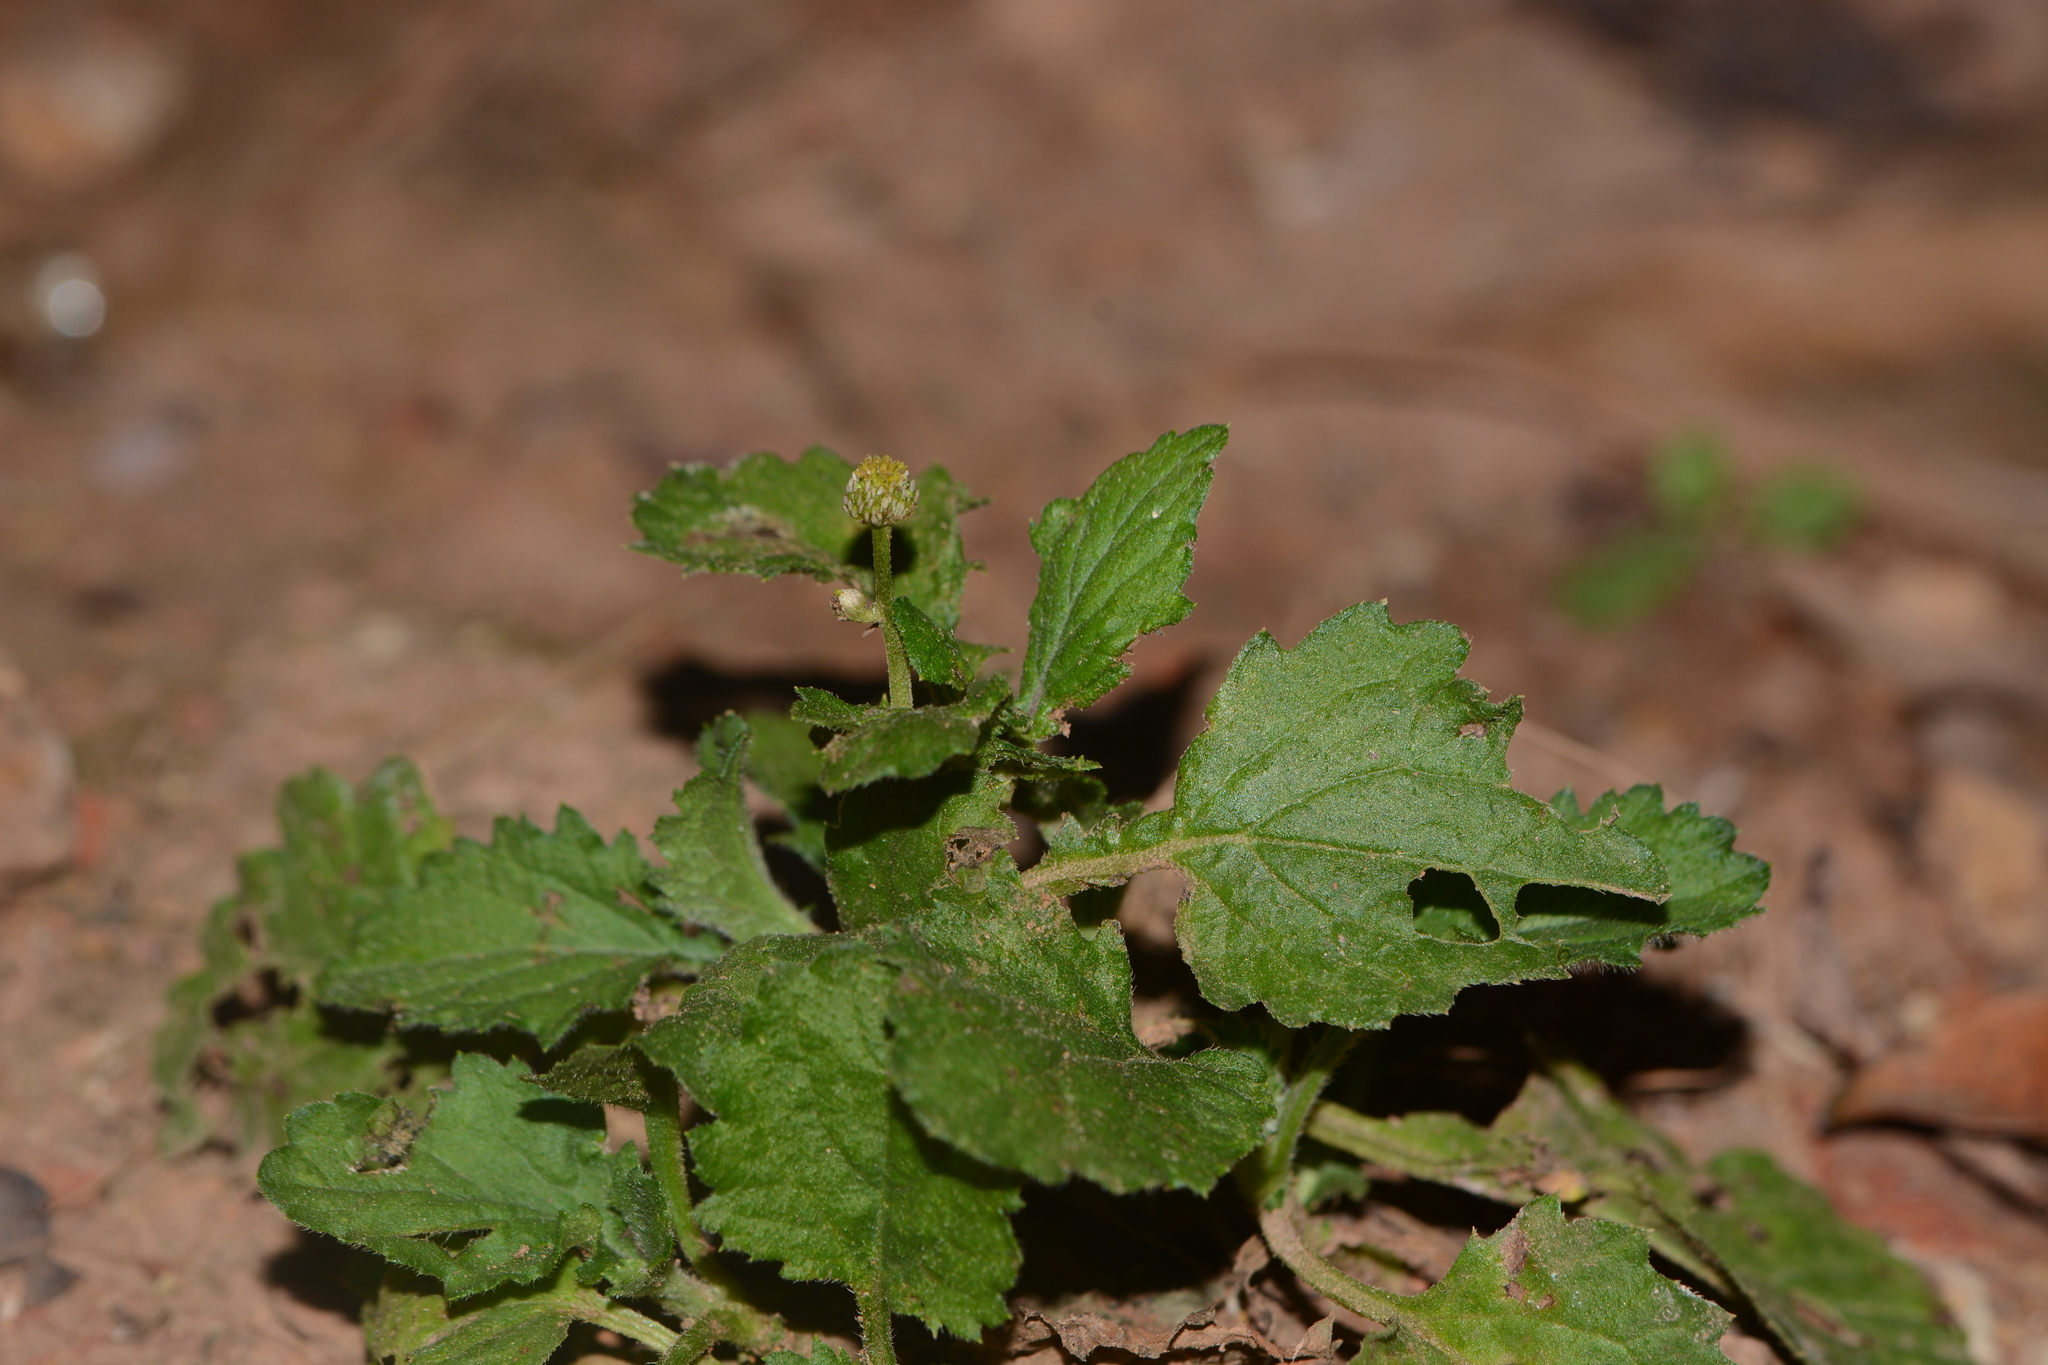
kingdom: Plantae
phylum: Tracheophyta
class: Magnoliopsida
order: Asterales
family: Asteraceae
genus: Dichrocephala
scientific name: Dichrocephala integrifolia
